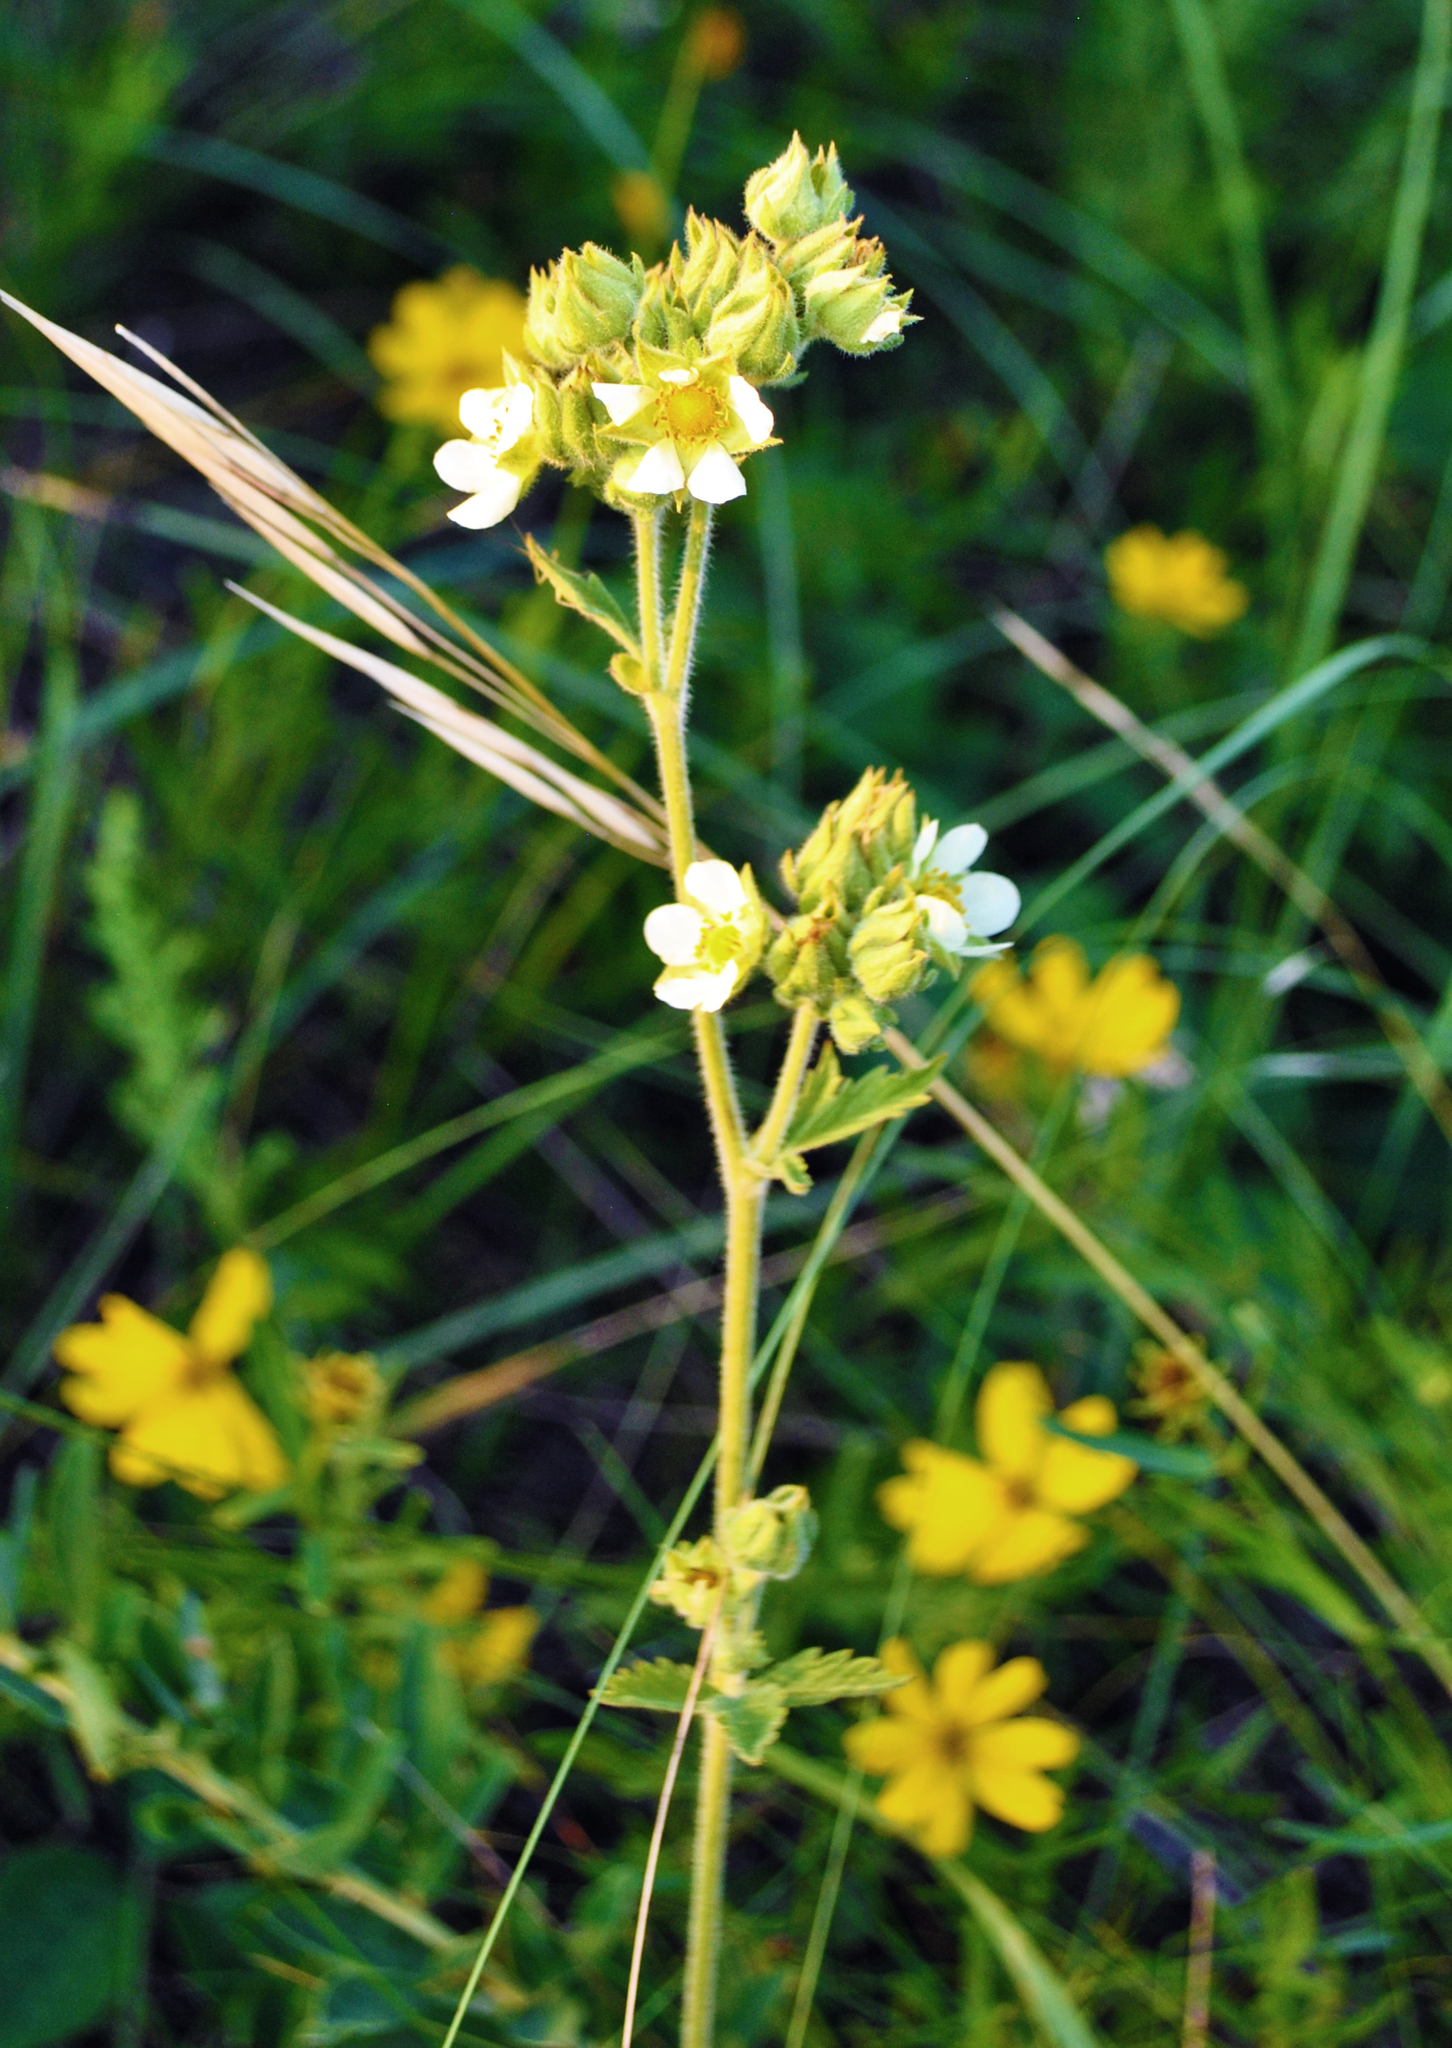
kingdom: Plantae
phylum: Tracheophyta
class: Magnoliopsida
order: Rosales
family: Rosaceae
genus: Drymocallis
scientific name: Drymocallis arguta
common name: Tall cinquefoil
